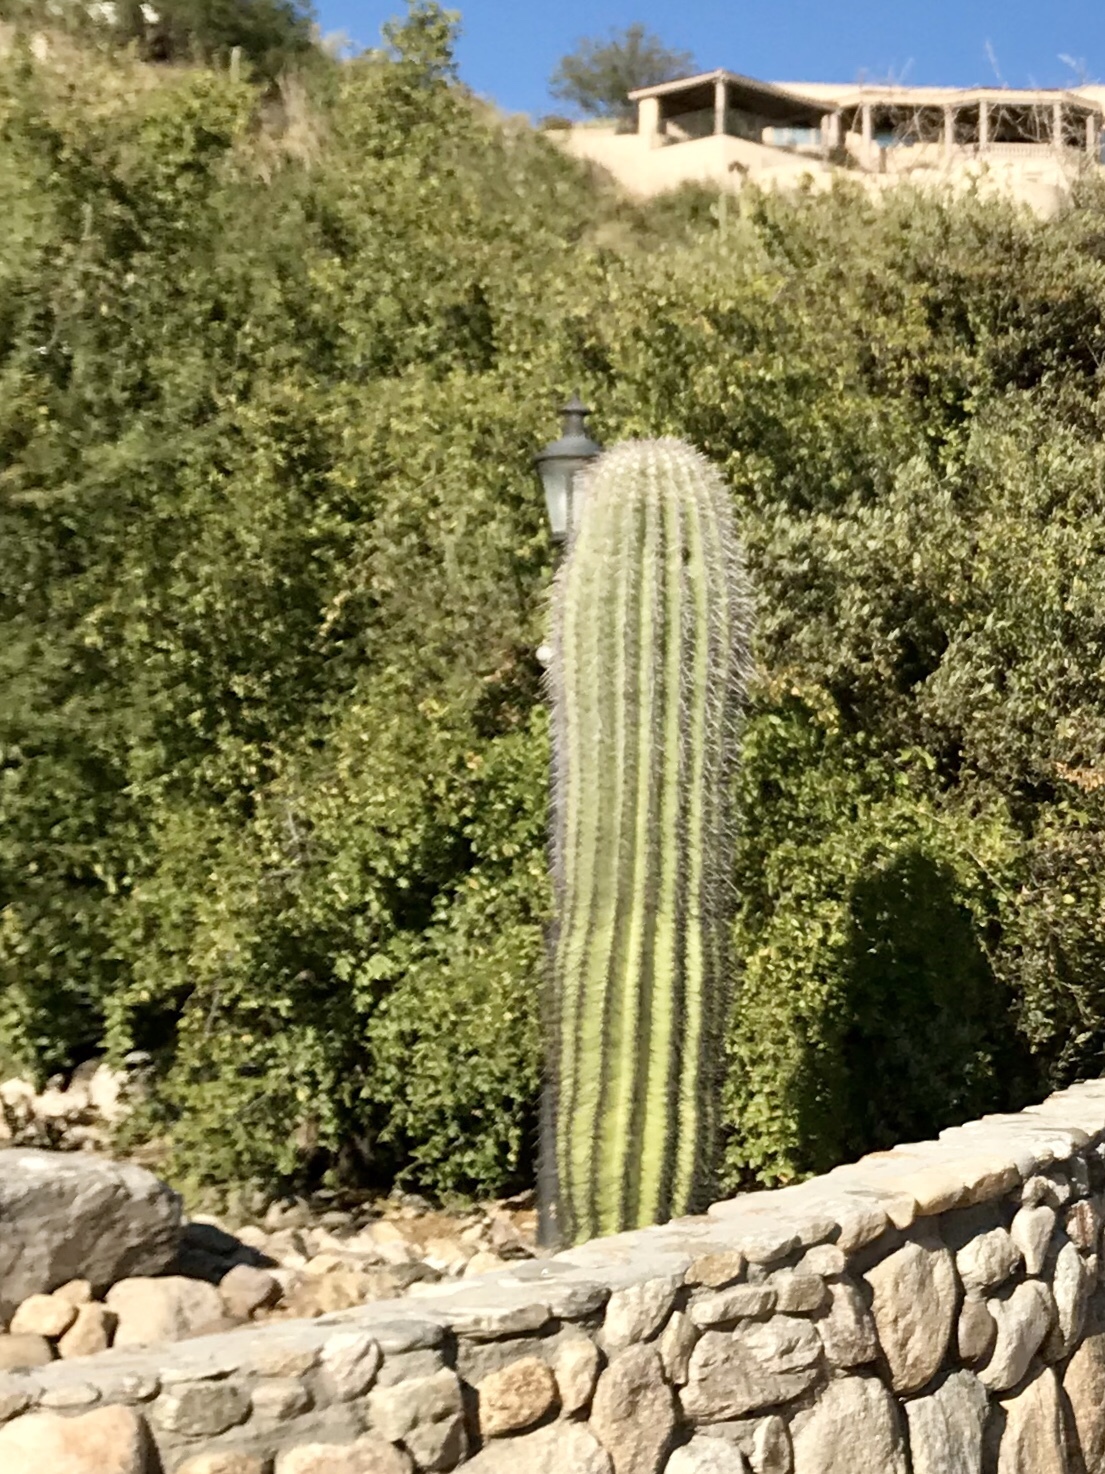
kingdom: Plantae
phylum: Tracheophyta
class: Magnoliopsida
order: Caryophyllales
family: Cactaceae
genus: Carnegiea
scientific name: Carnegiea gigantea
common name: Saguaro
